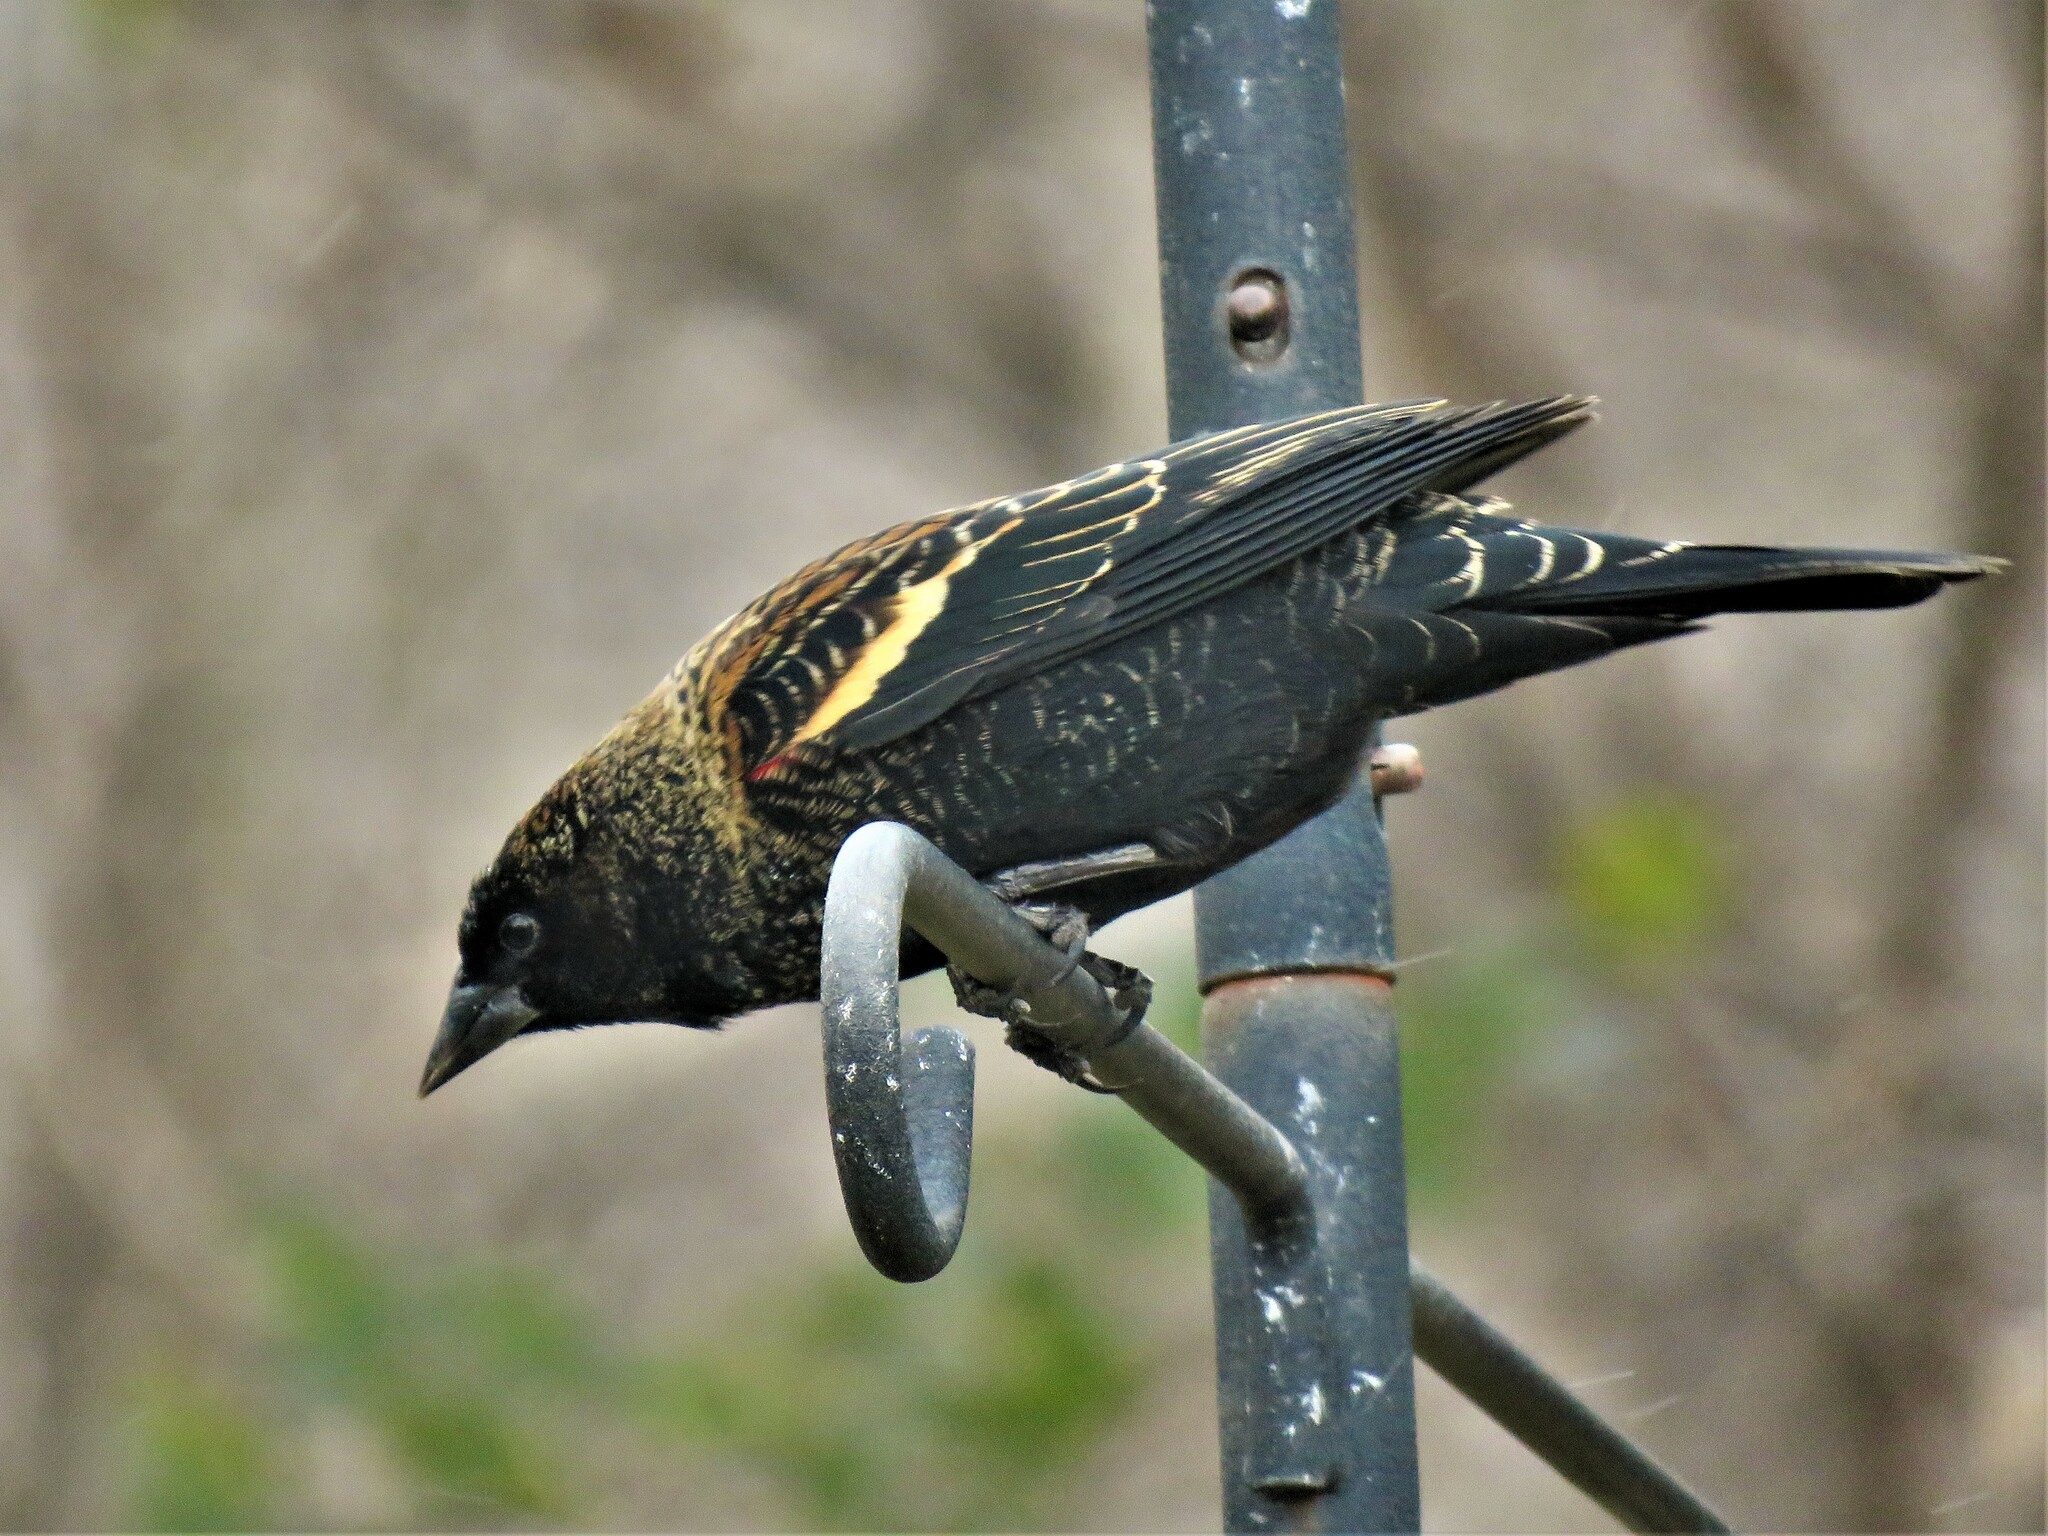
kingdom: Animalia
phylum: Chordata
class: Aves
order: Passeriformes
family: Icteridae
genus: Agelaius
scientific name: Agelaius phoeniceus
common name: Red-winged blackbird
